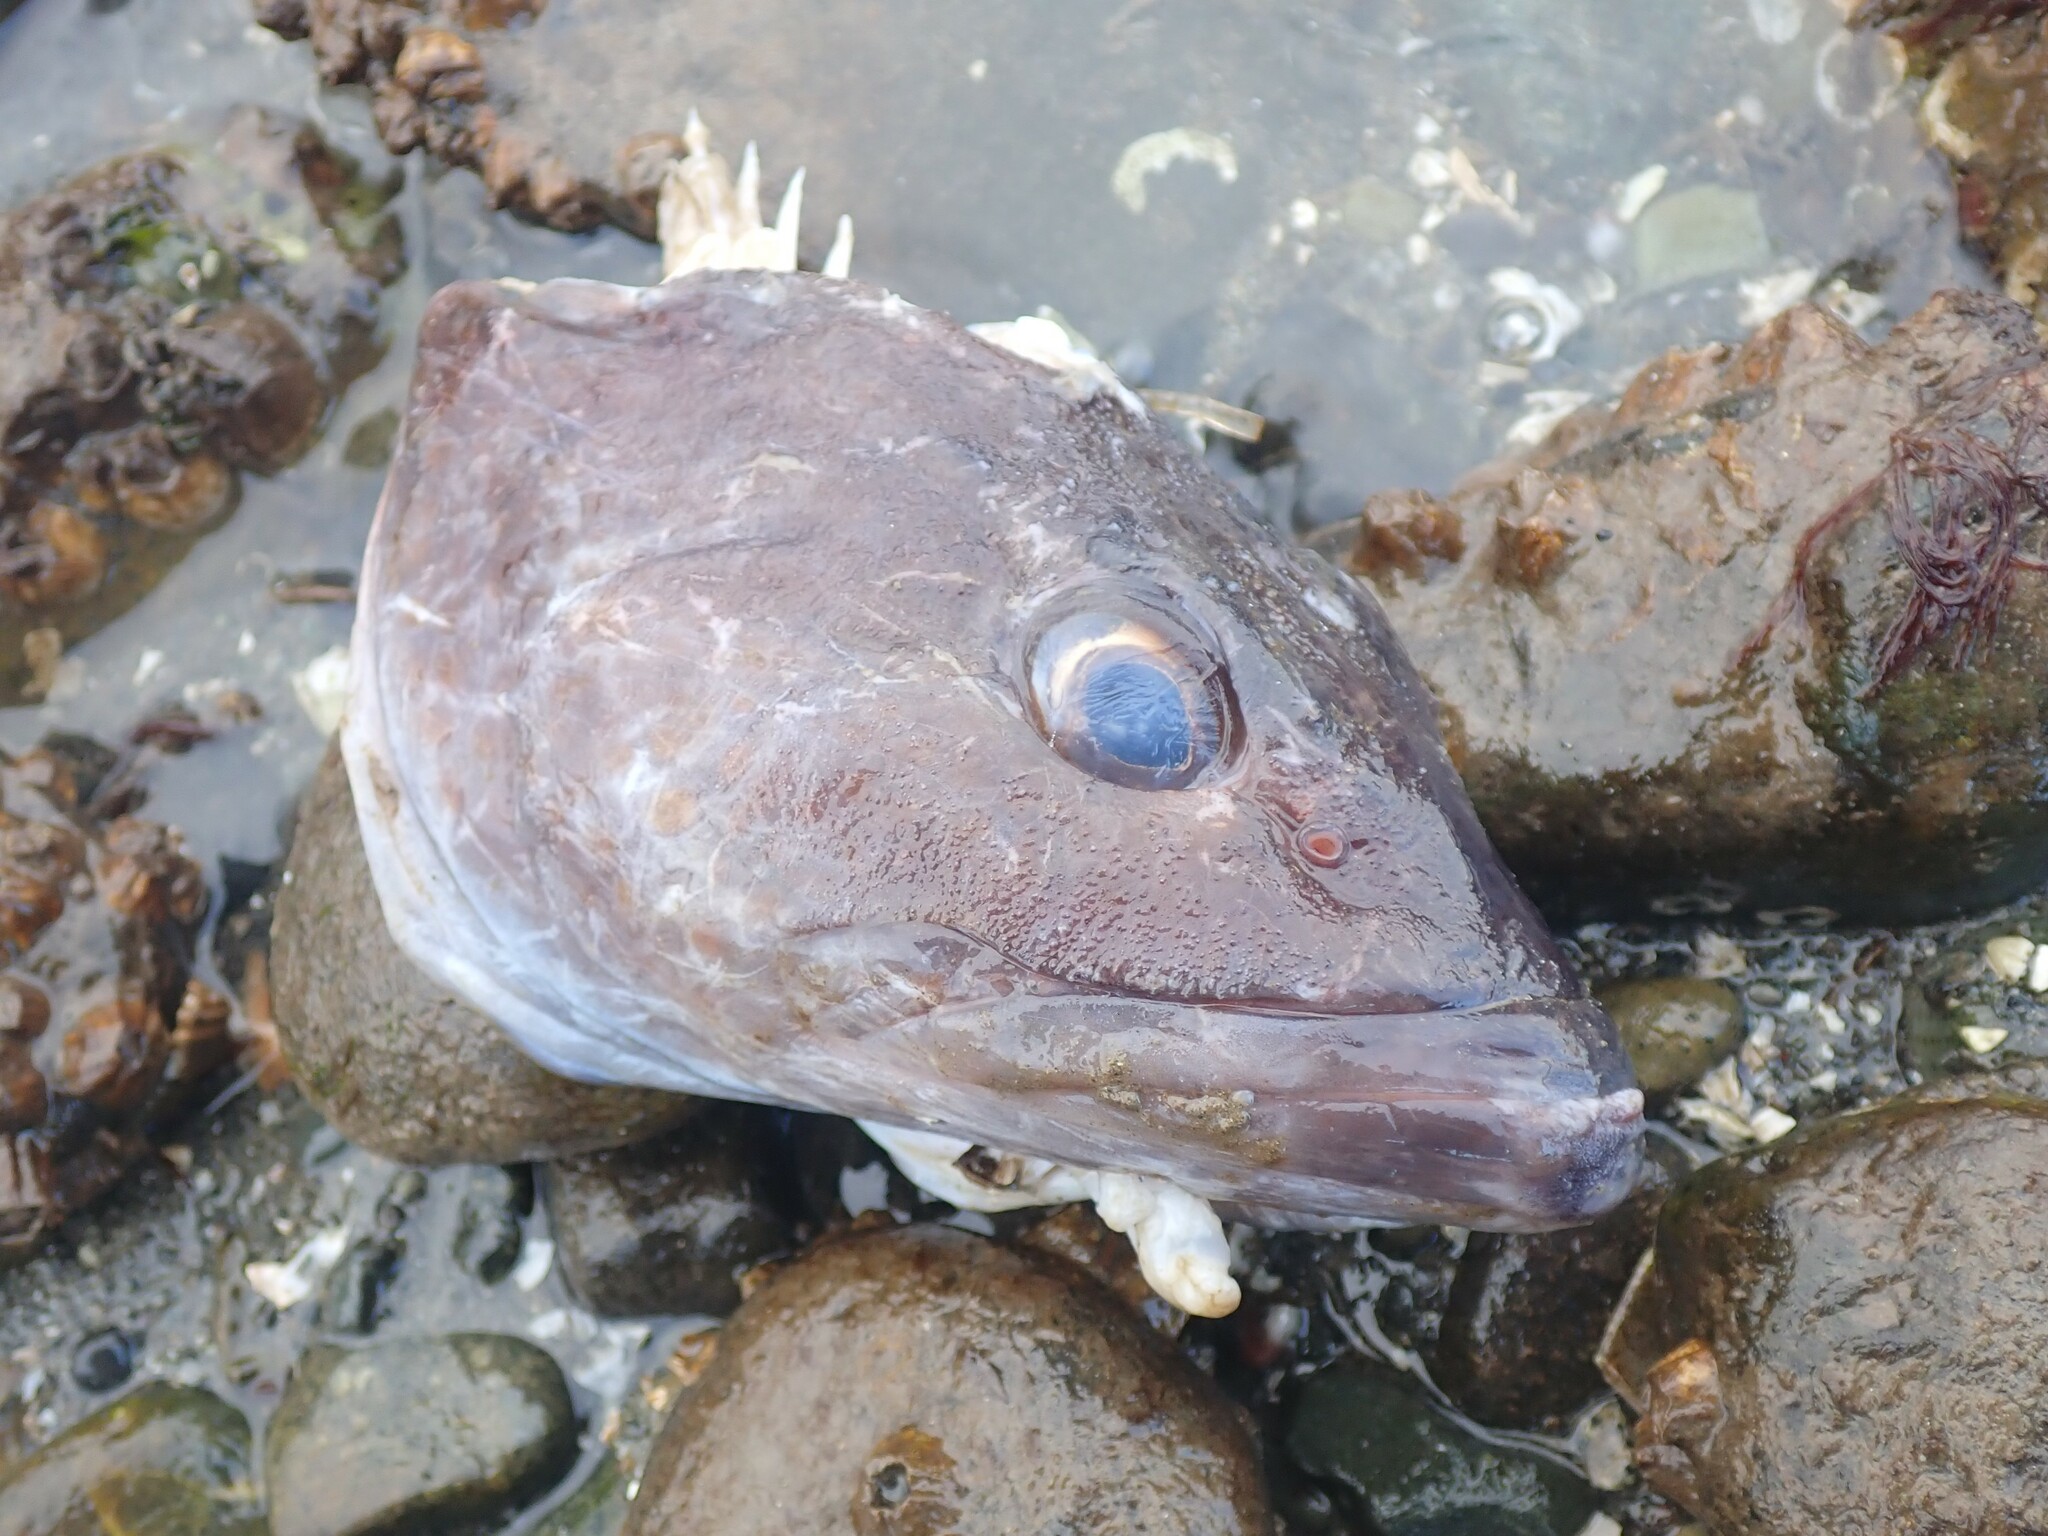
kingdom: Animalia
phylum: Chordata
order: Scorpaeniformes
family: Hexagrammidae
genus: Ophiodon
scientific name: Ophiodon elongatus
